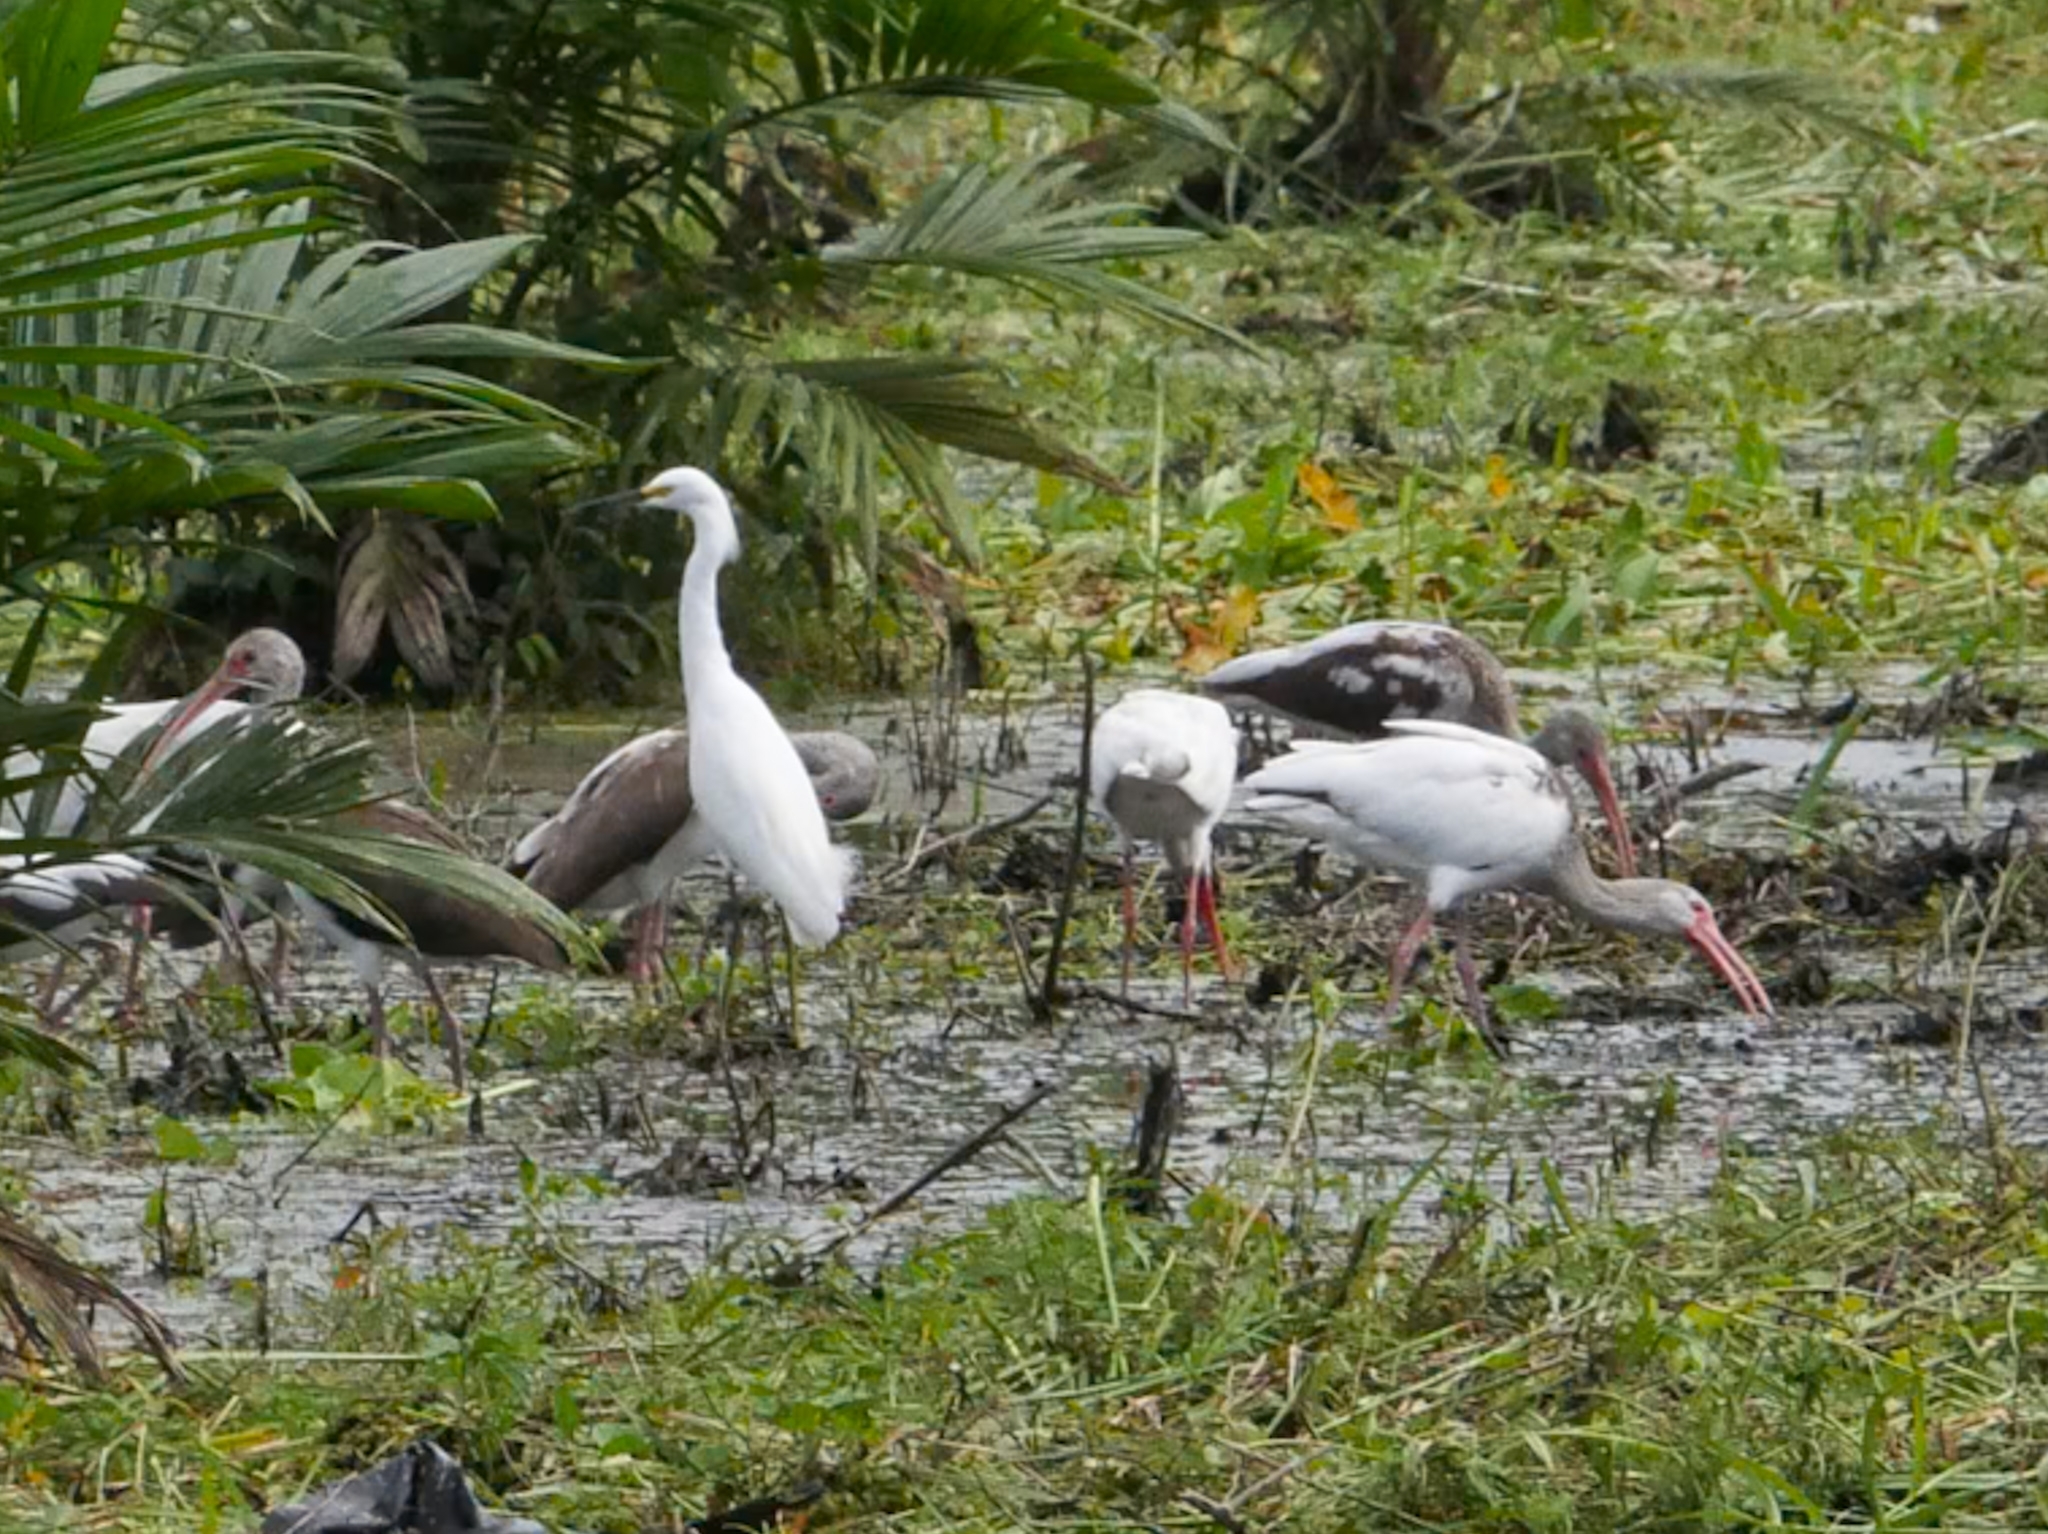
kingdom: Animalia
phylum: Chordata
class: Aves
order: Pelecaniformes
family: Threskiornithidae
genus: Eudocimus
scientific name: Eudocimus albus
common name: White ibis
